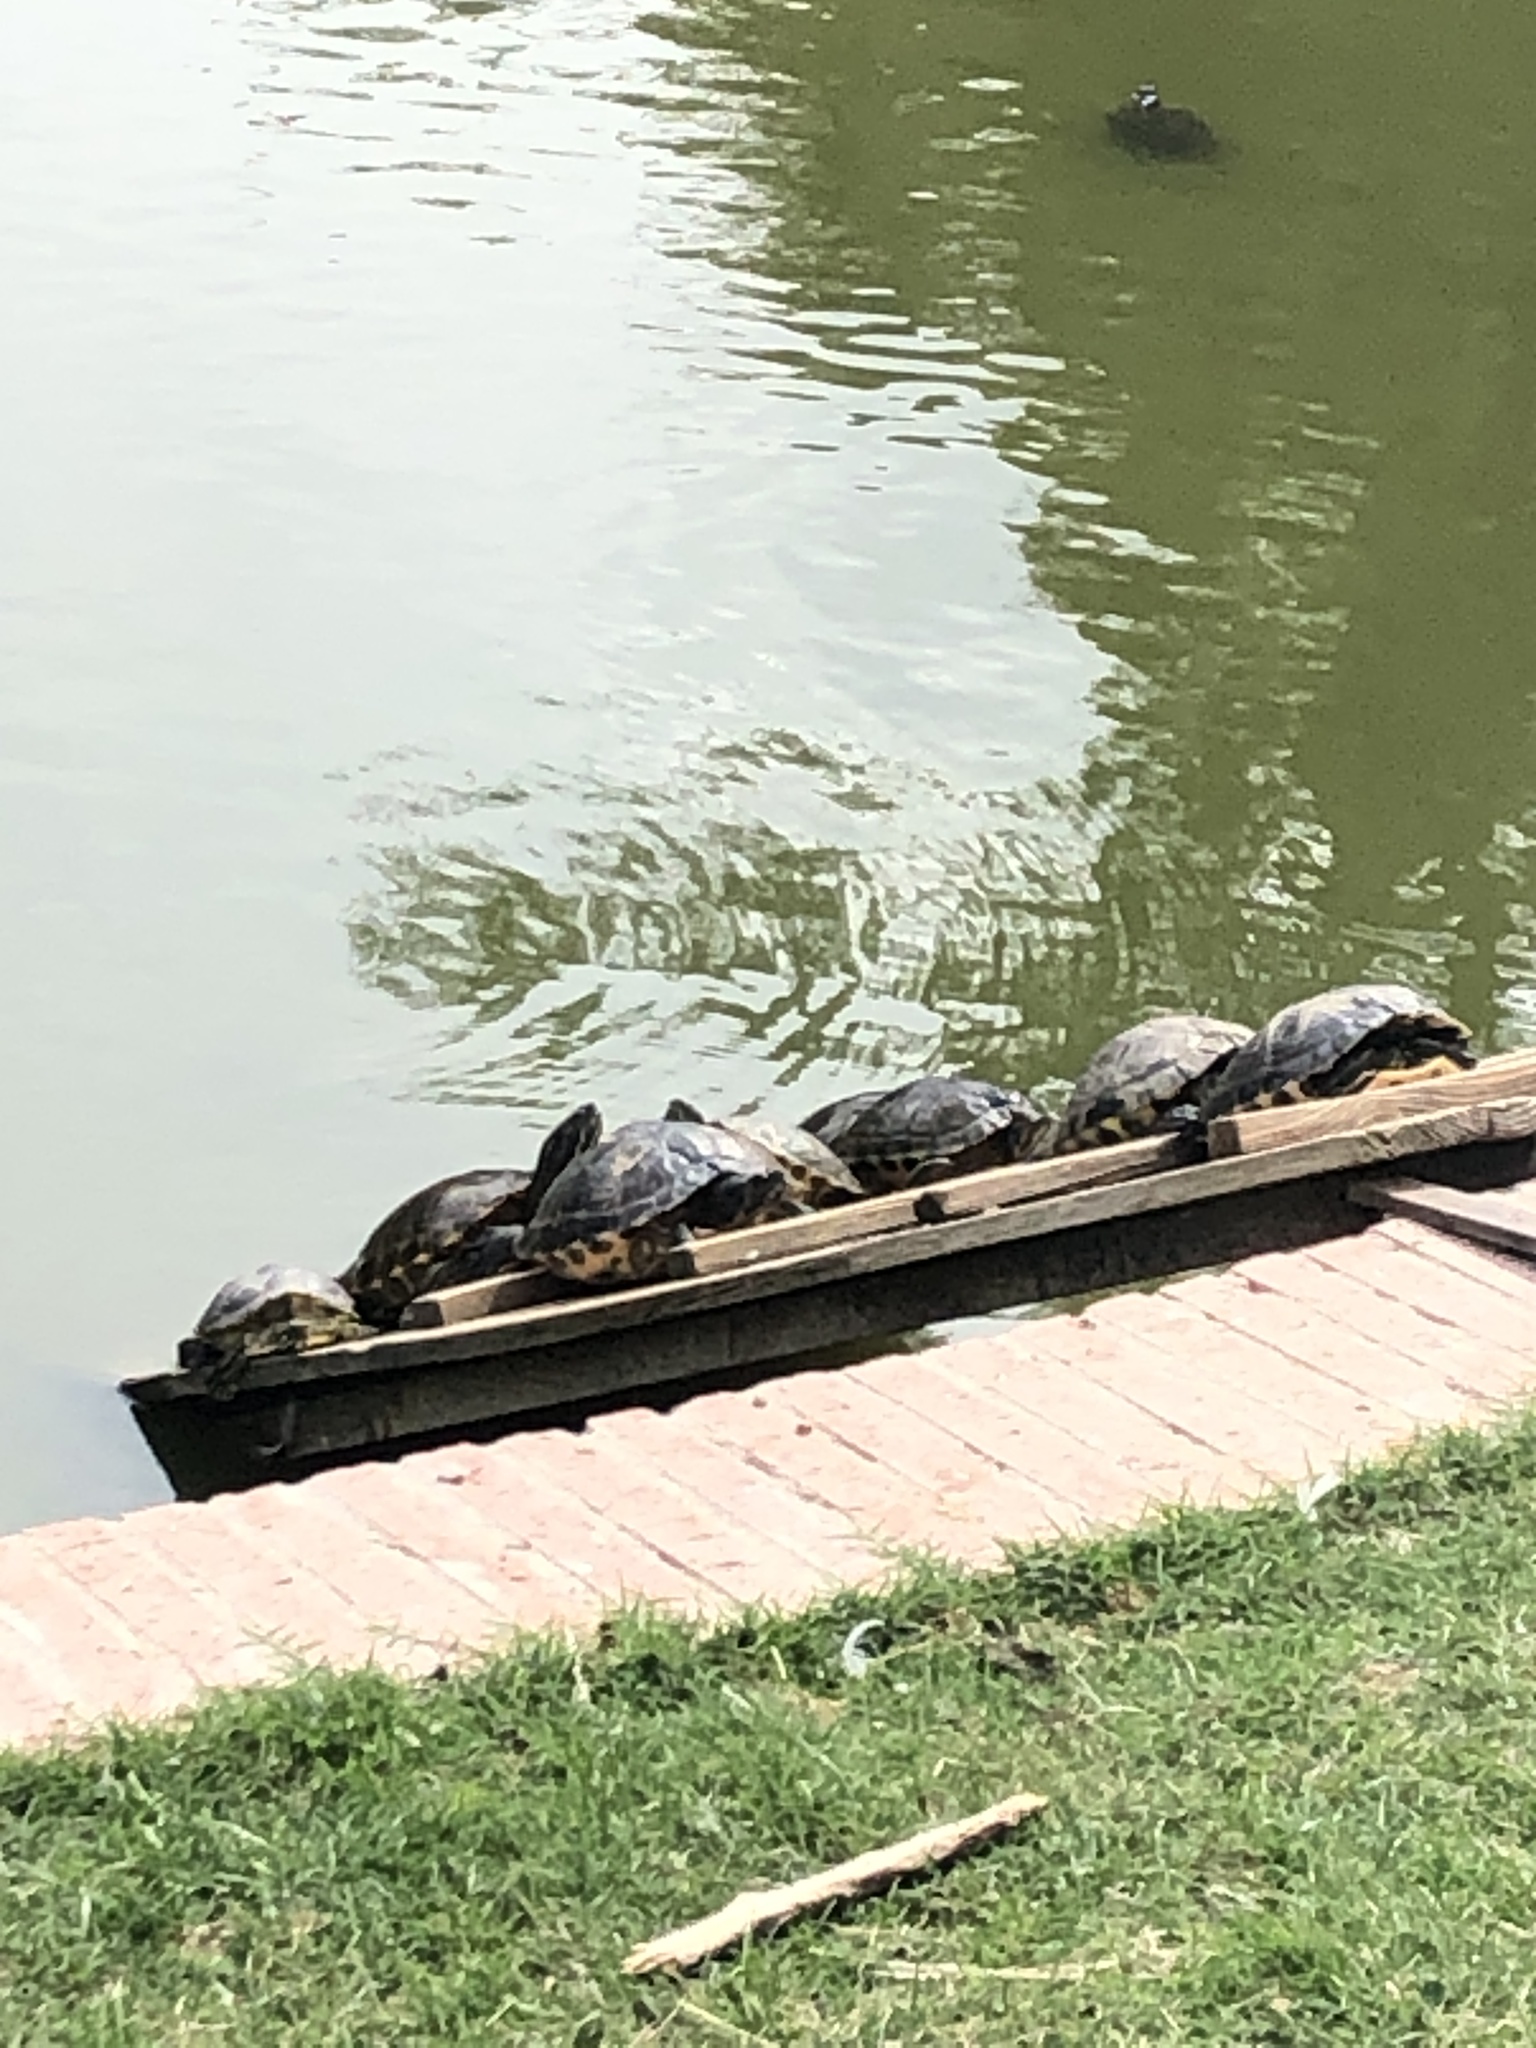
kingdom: Animalia
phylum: Chordata
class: Testudines
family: Emydidae
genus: Pseudemys
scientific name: Pseudemys concinna
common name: Eastern river cooter
